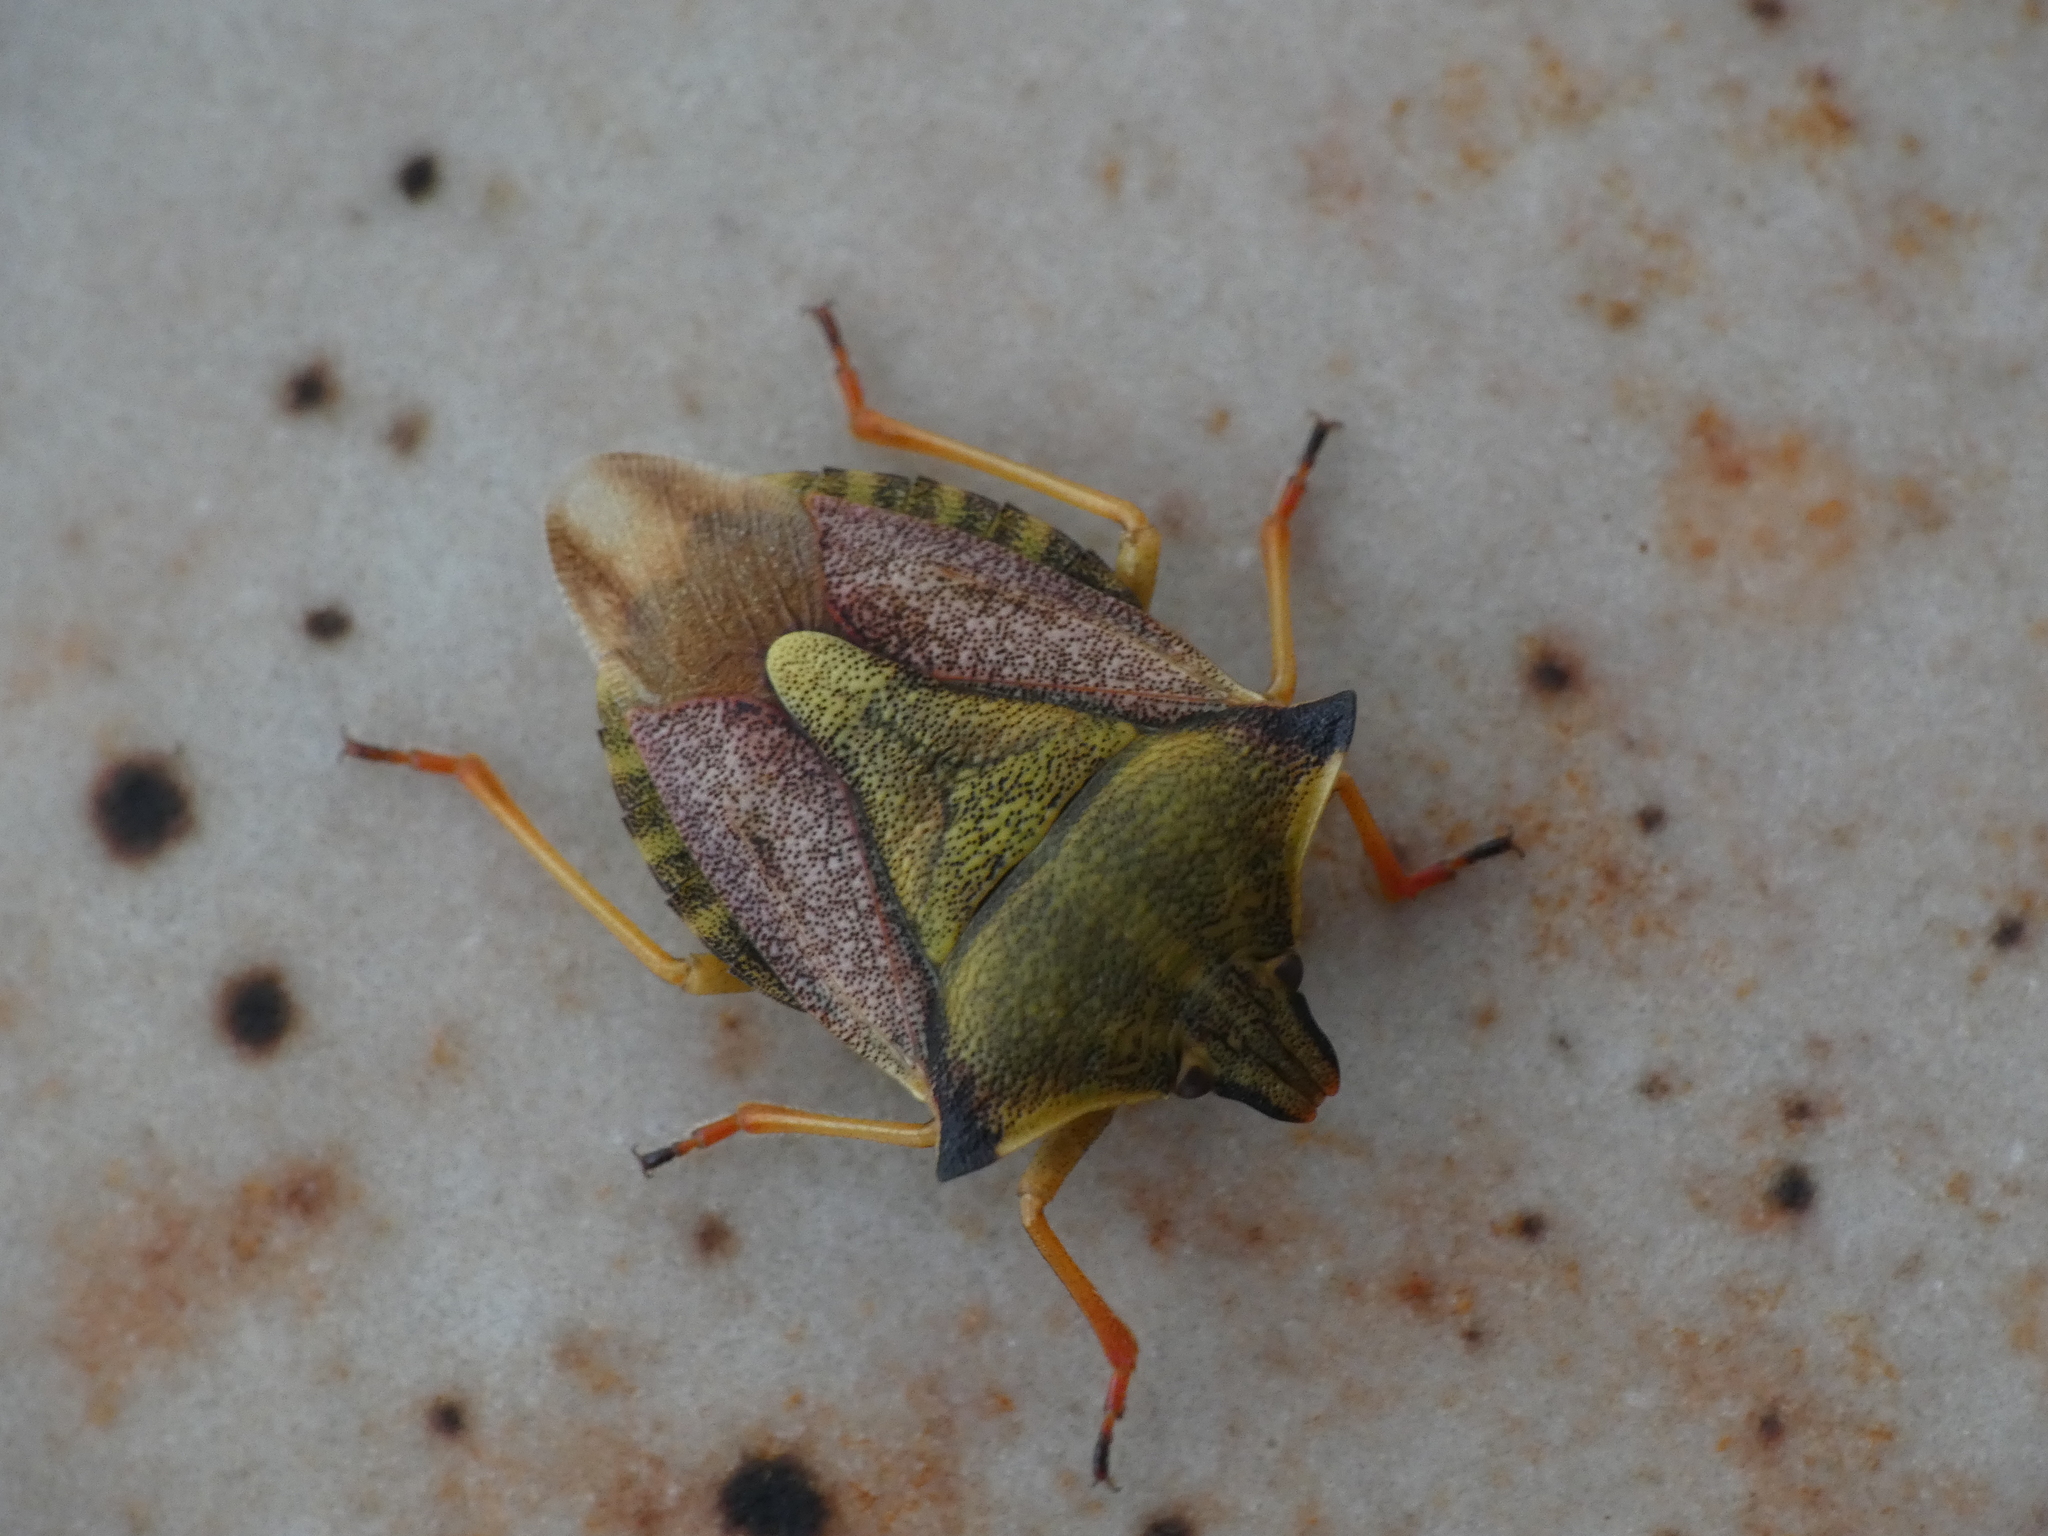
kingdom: Animalia
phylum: Arthropoda
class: Insecta
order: Hemiptera
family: Pentatomidae
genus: Carpocoris
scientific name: Carpocoris mediterraneus
